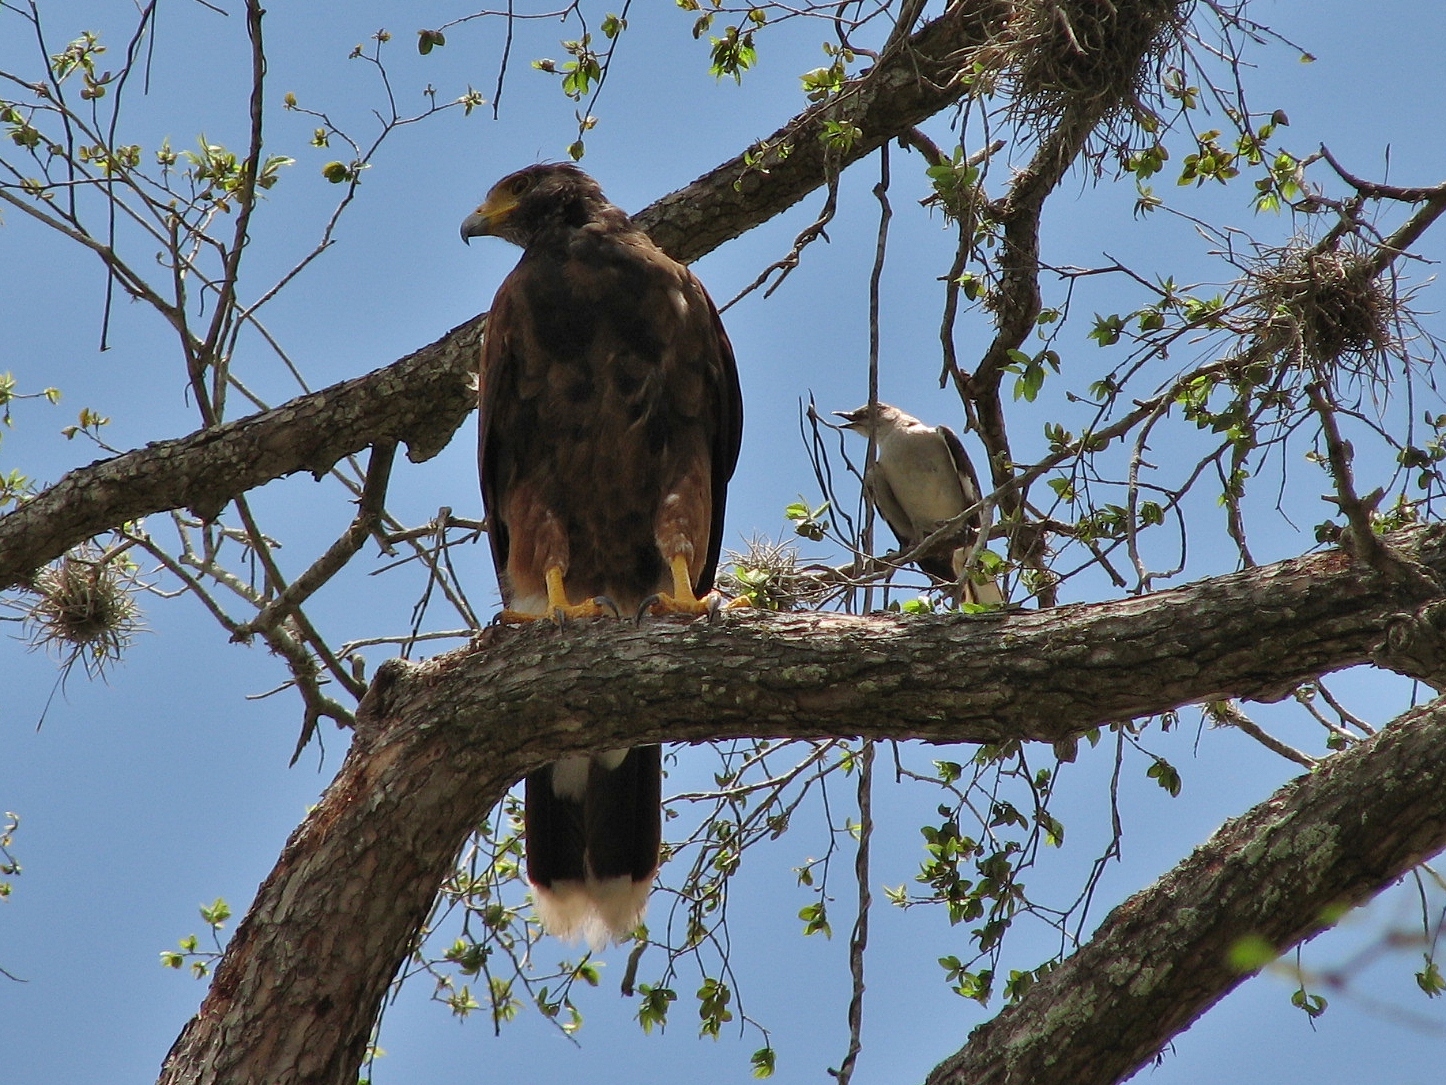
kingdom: Animalia
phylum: Chordata
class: Aves
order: Accipitriformes
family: Accipitridae
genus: Parabuteo
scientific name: Parabuteo unicinctus
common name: Harris's hawk
